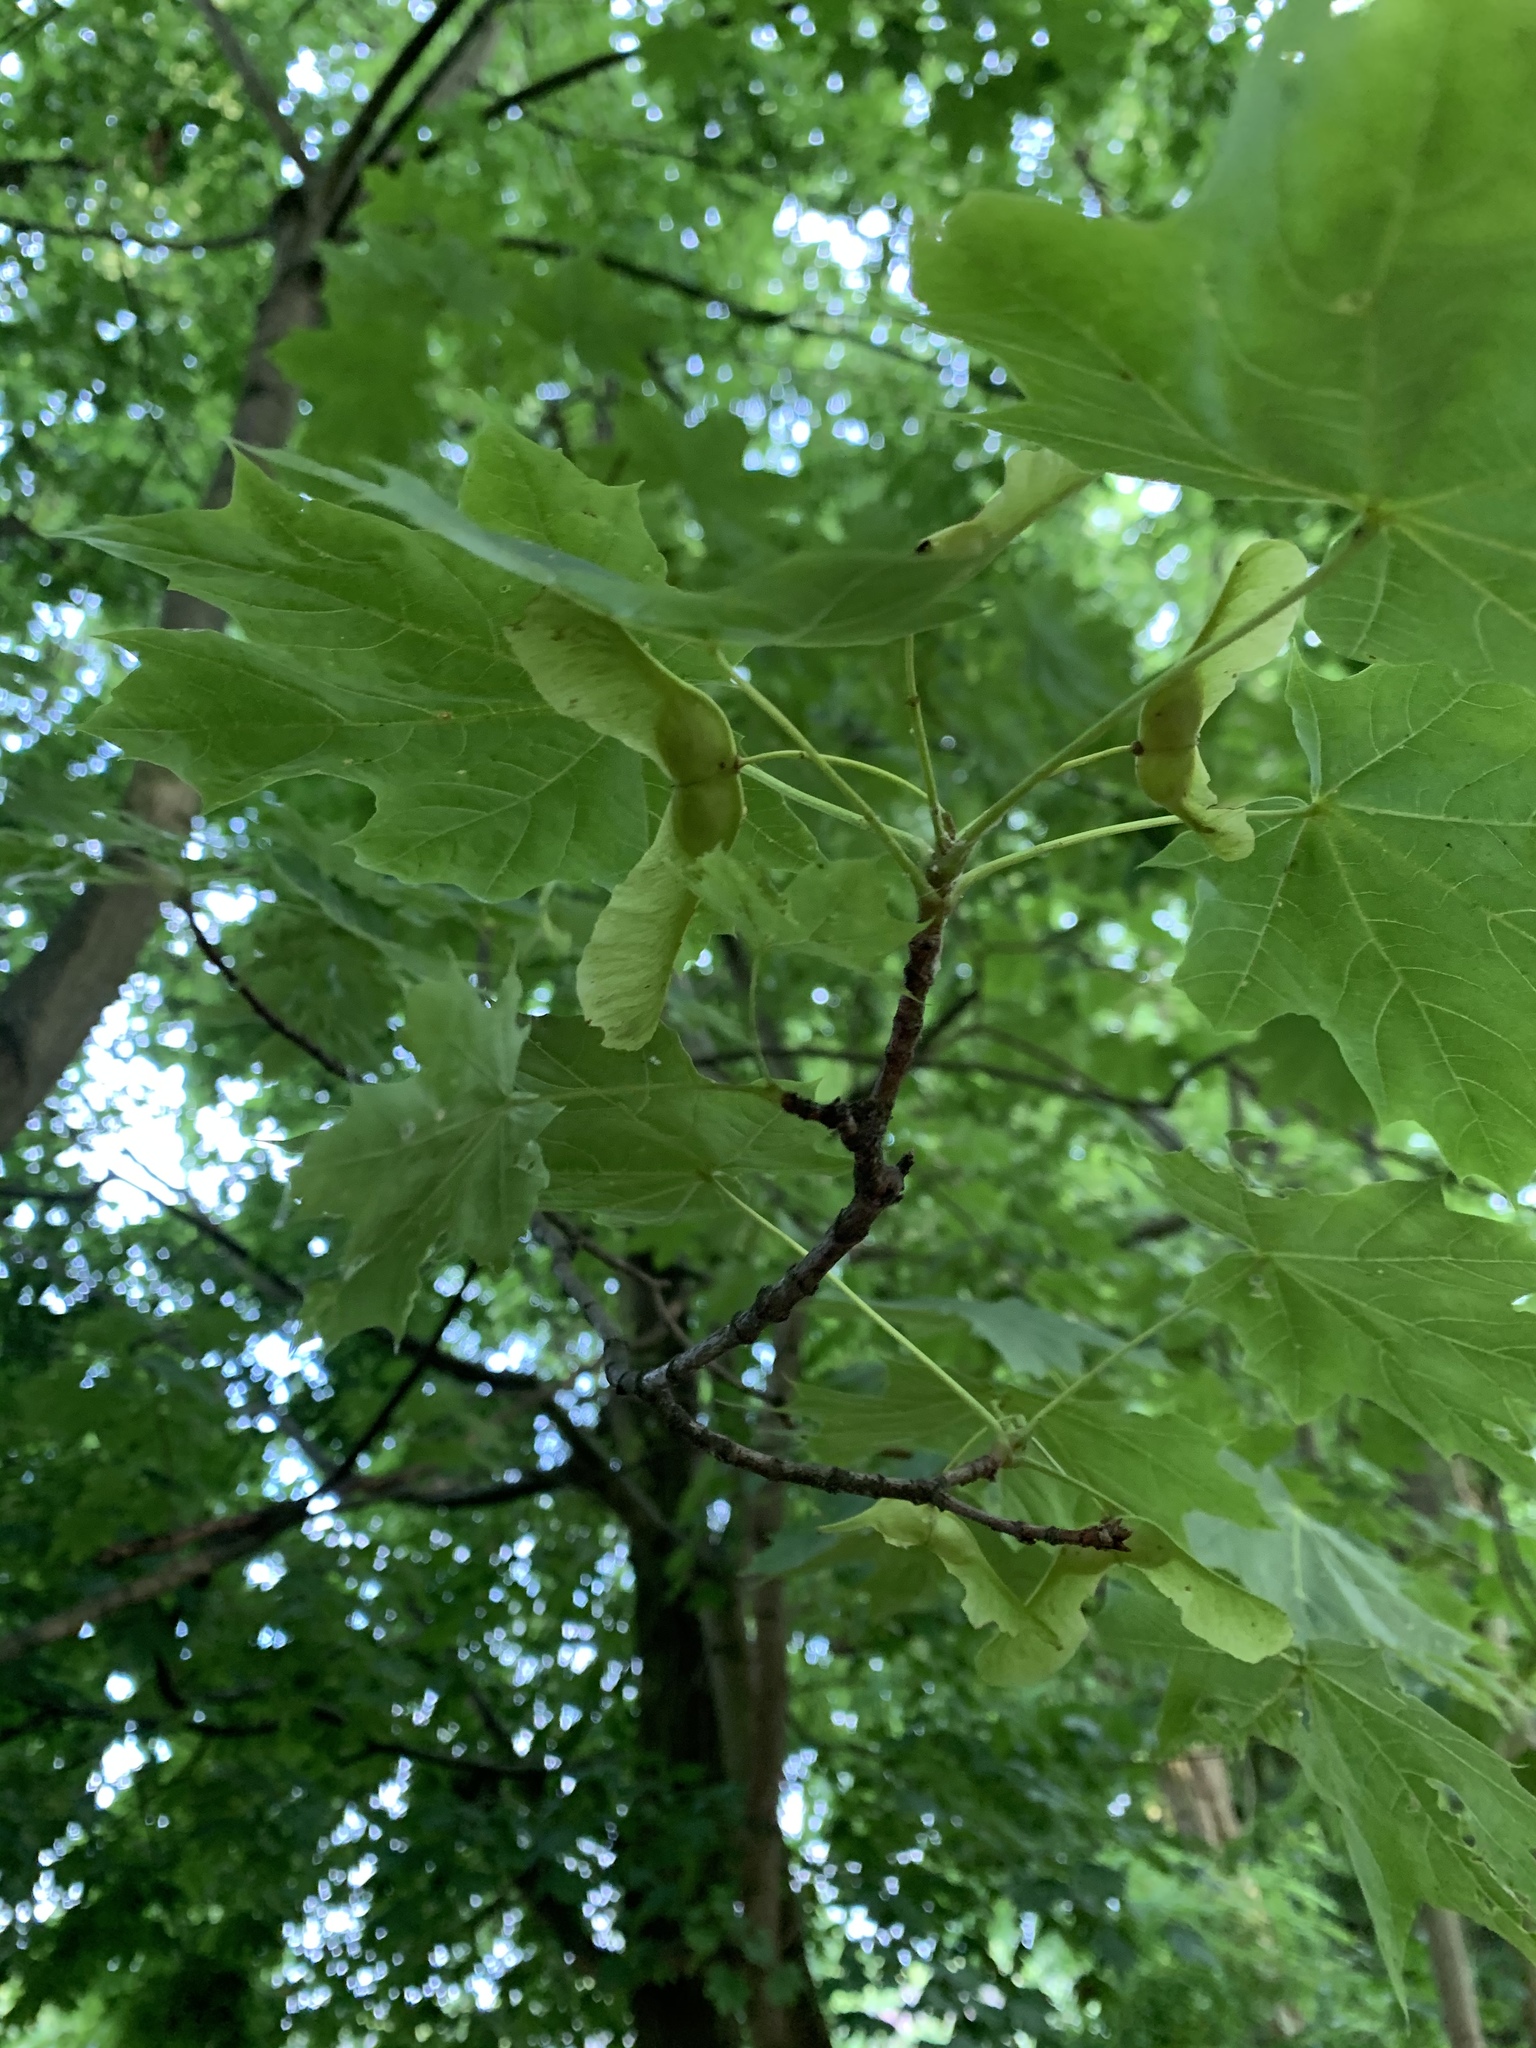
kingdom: Plantae
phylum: Tracheophyta
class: Magnoliopsida
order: Sapindales
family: Sapindaceae
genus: Acer
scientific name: Acer platanoides
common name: Norway maple
